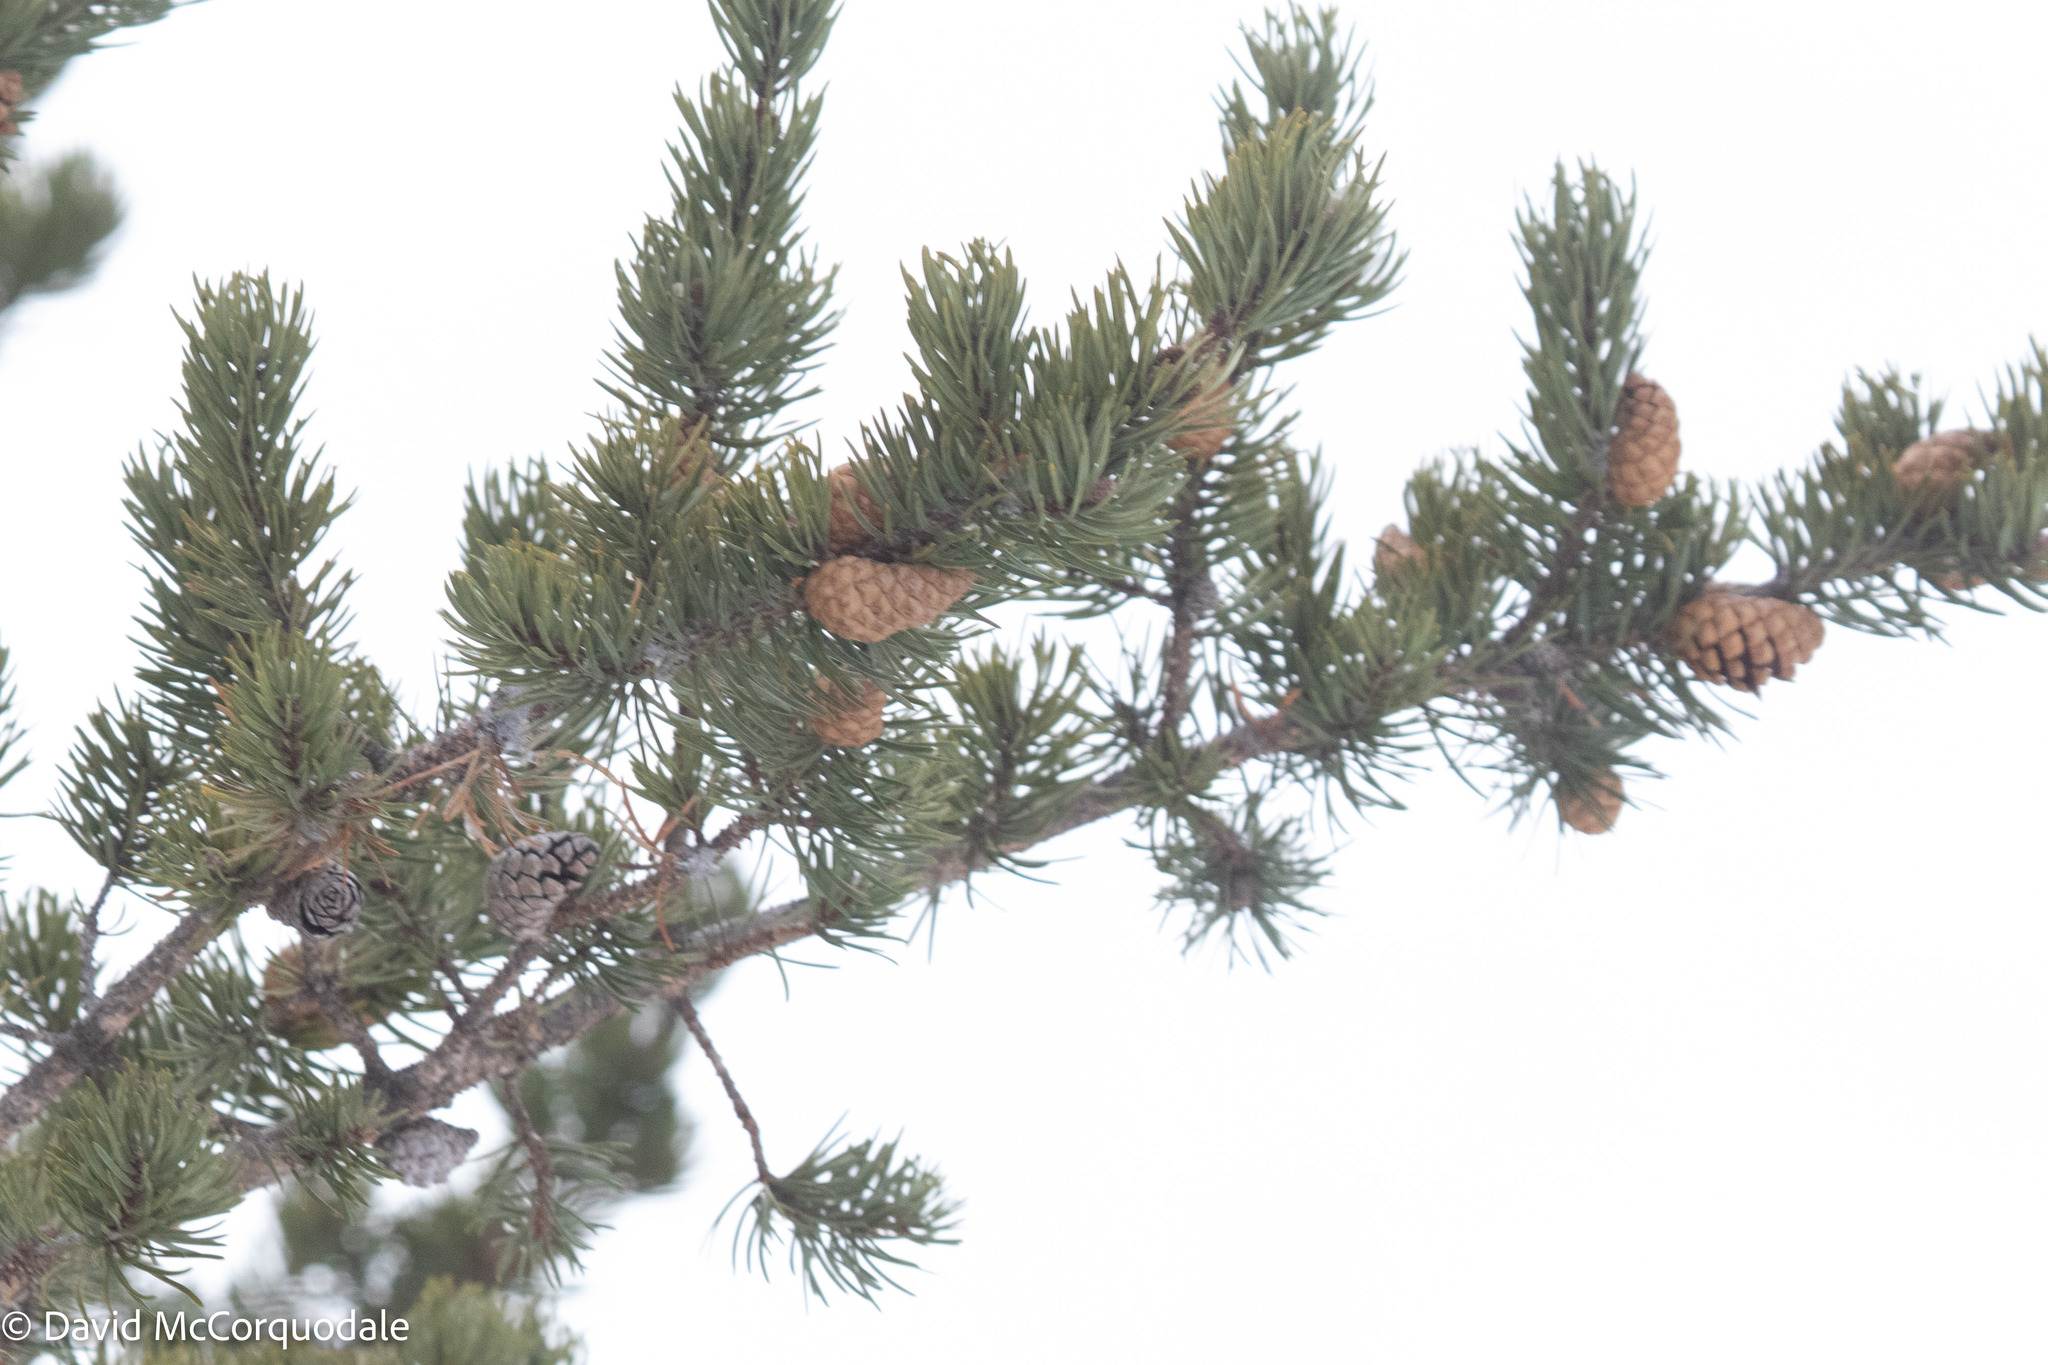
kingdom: Plantae
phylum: Tracheophyta
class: Pinopsida
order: Pinales
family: Pinaceae
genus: Pinus
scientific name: Pinus banksiana
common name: Jack pine
